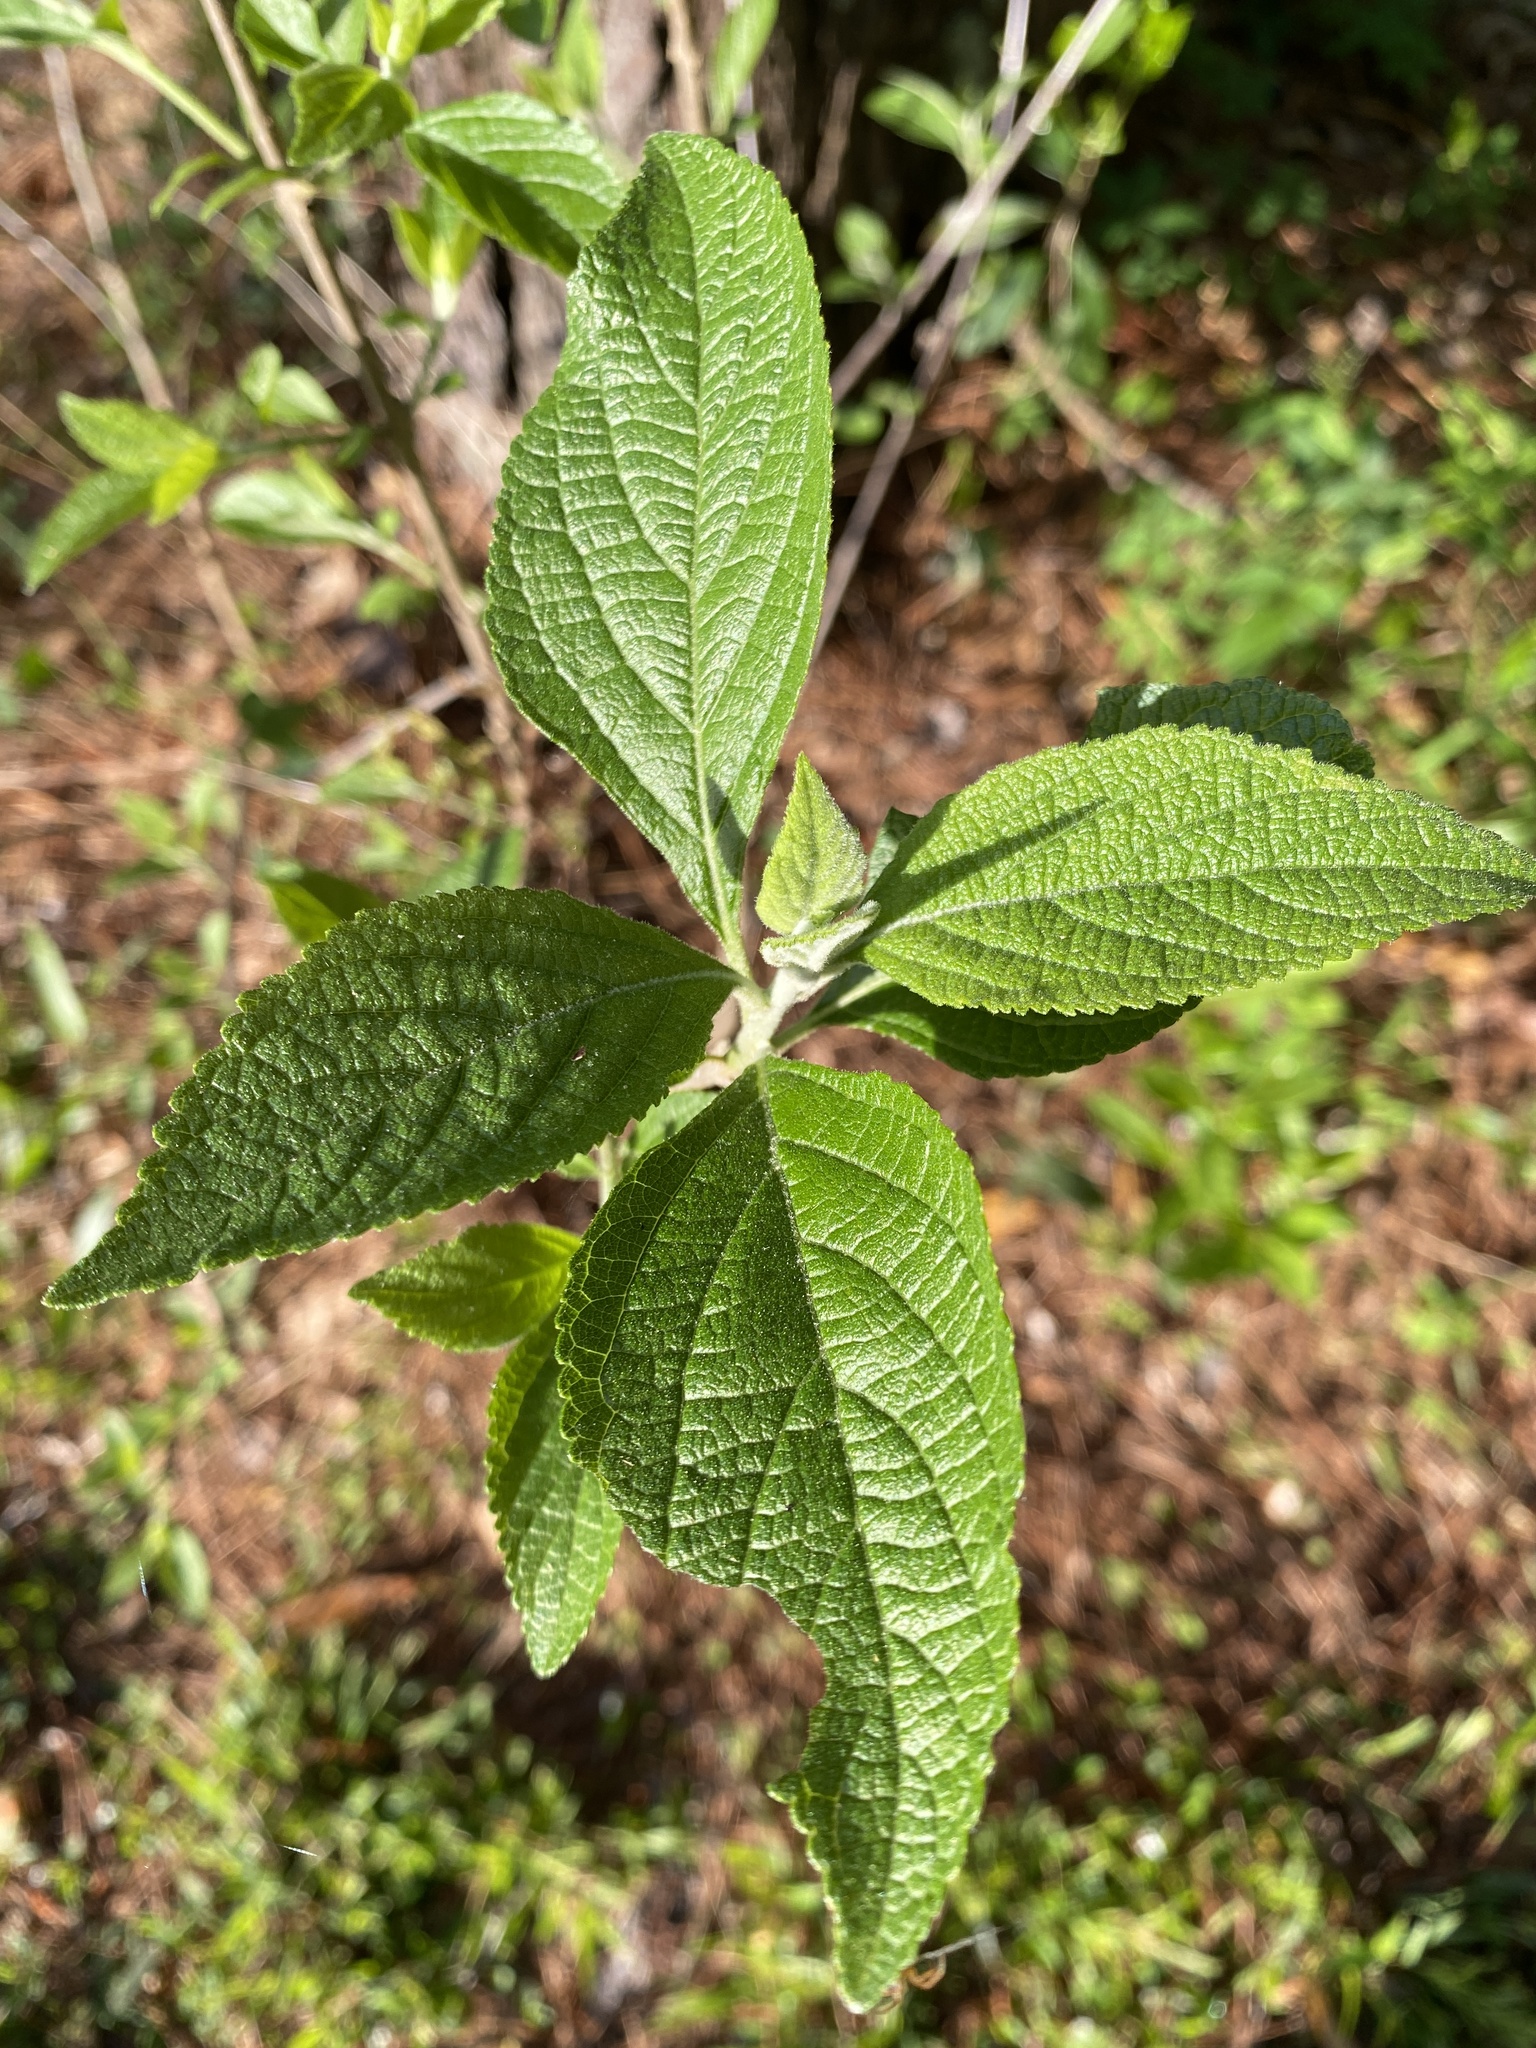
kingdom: Plantae
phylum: Tracheophyta
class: Magnoliopsida
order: Lamiales
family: Lamiaceae
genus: Callicarpa
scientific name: Callicarpa americana
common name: American beautyberry
